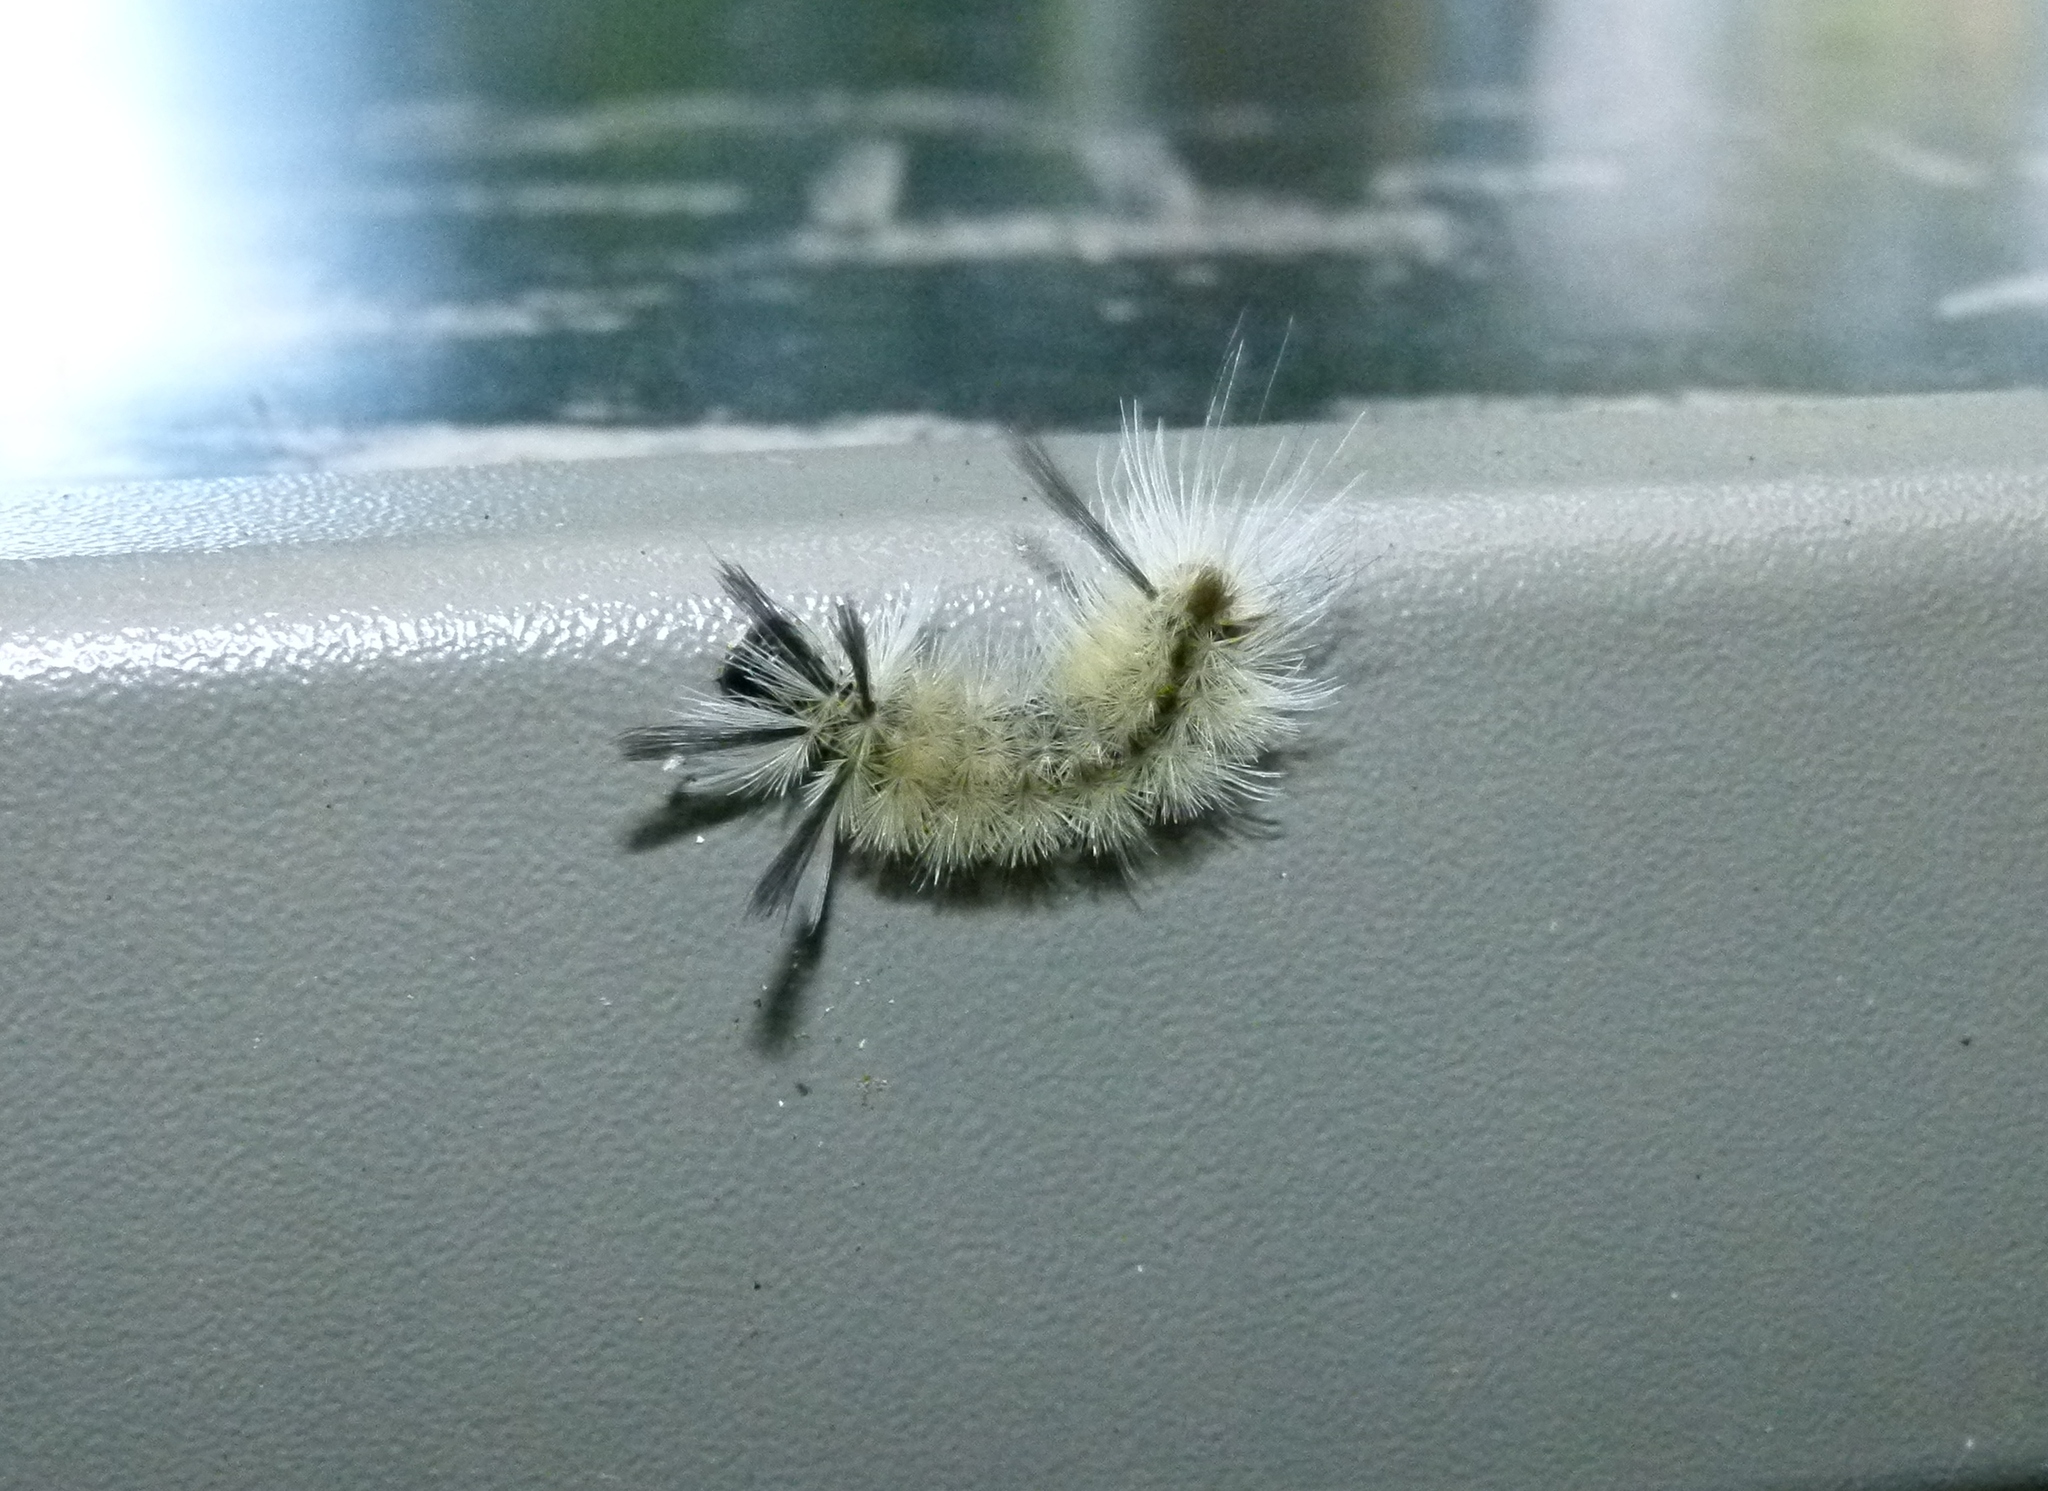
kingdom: Animalia
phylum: Arthropoda
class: Insecta
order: Lepidoptera
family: Erebidae
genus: Halysidota
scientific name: Halysidota tessellaris
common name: Banded tussock moth
